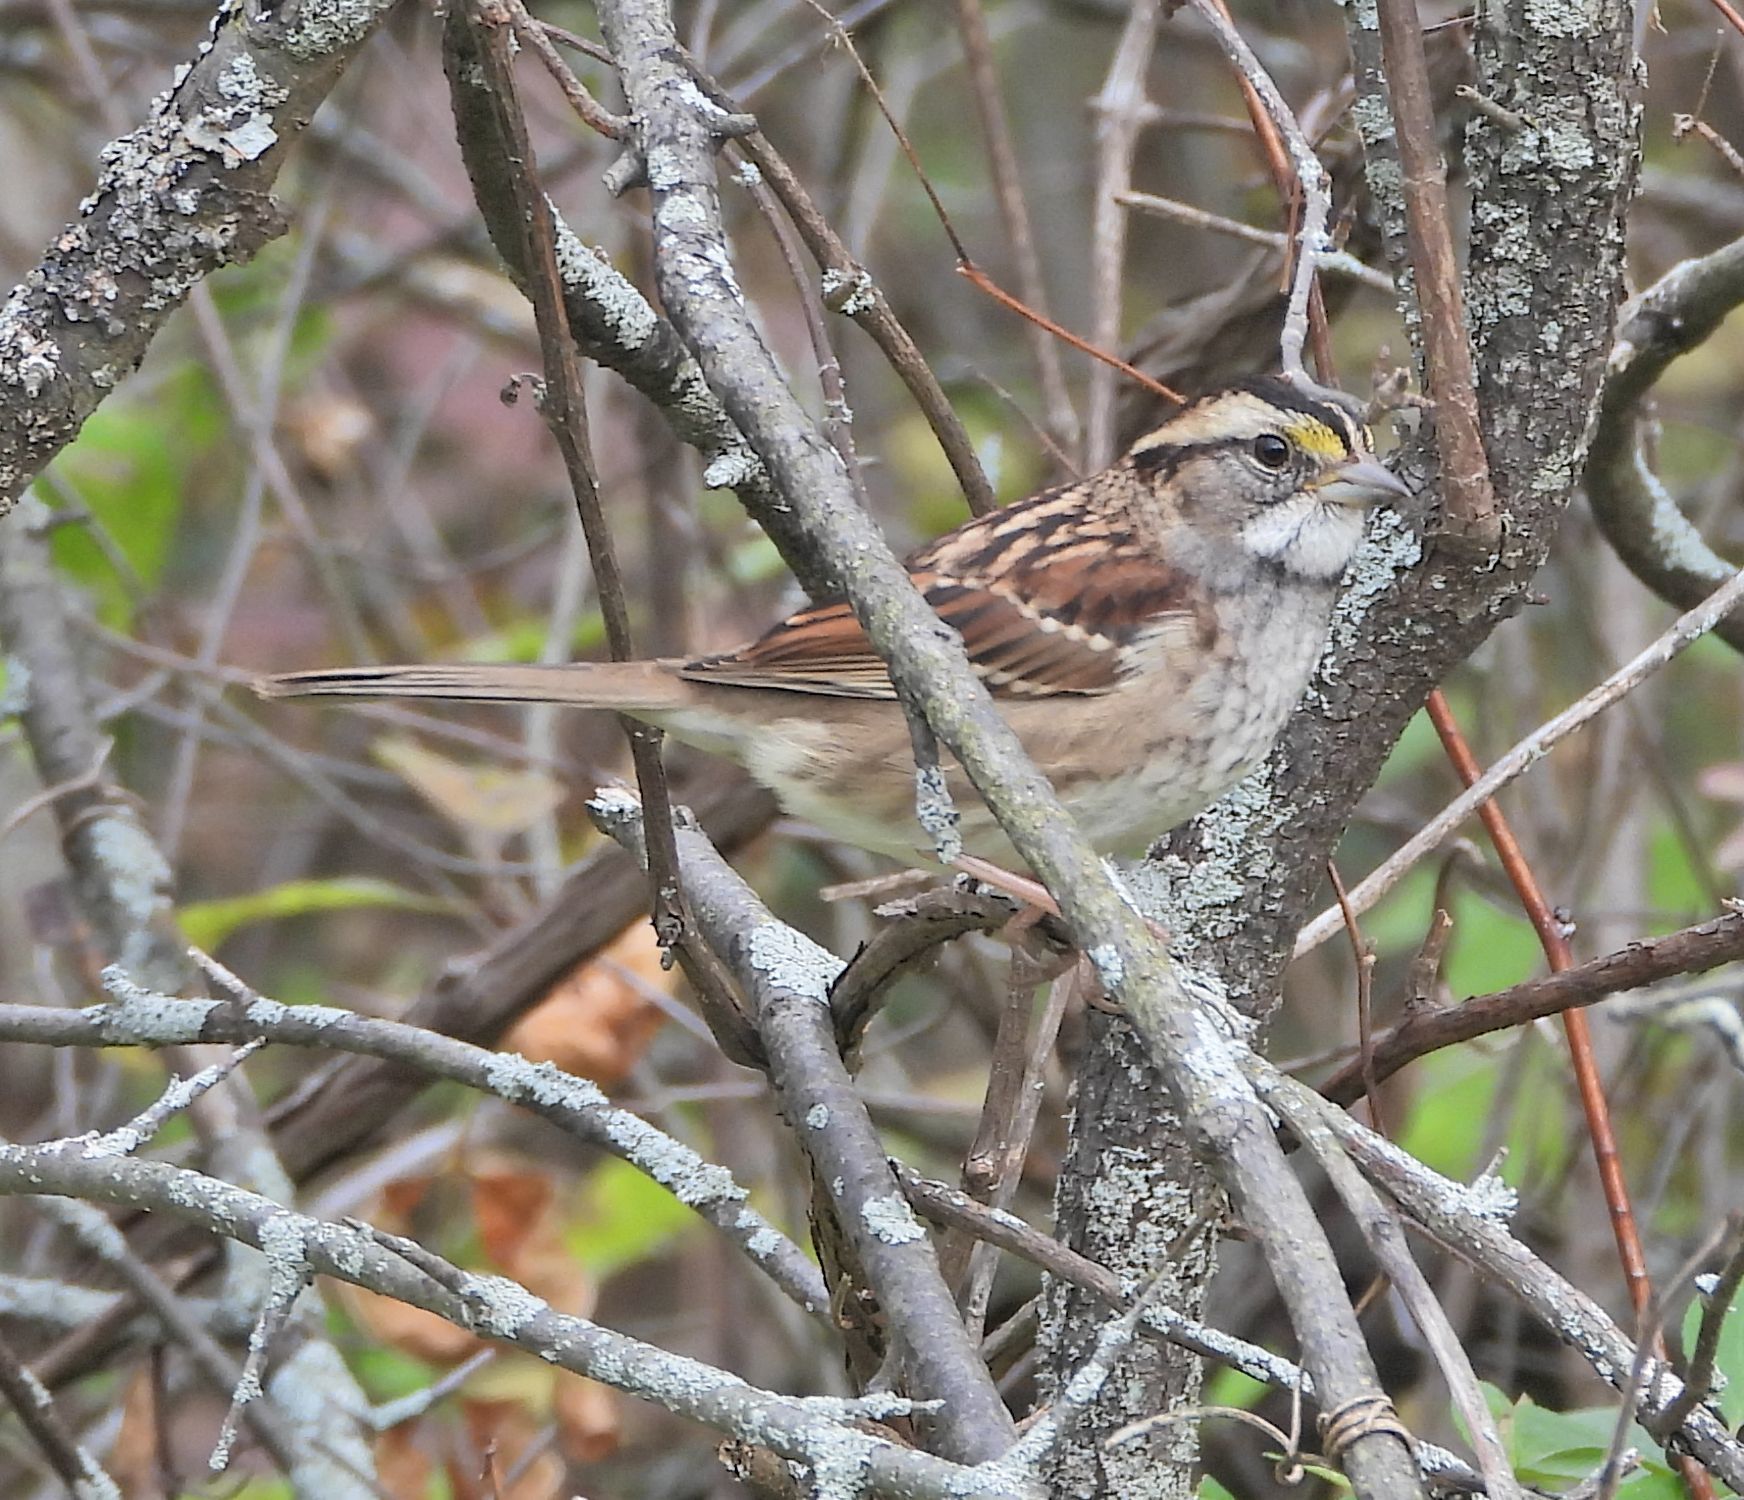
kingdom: Animalia
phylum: Chordata
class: Aves
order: Passeriformes
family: Passerellidae
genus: Zonotrichia
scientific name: Zonotrichia albicollis
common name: White-throated sparrow
